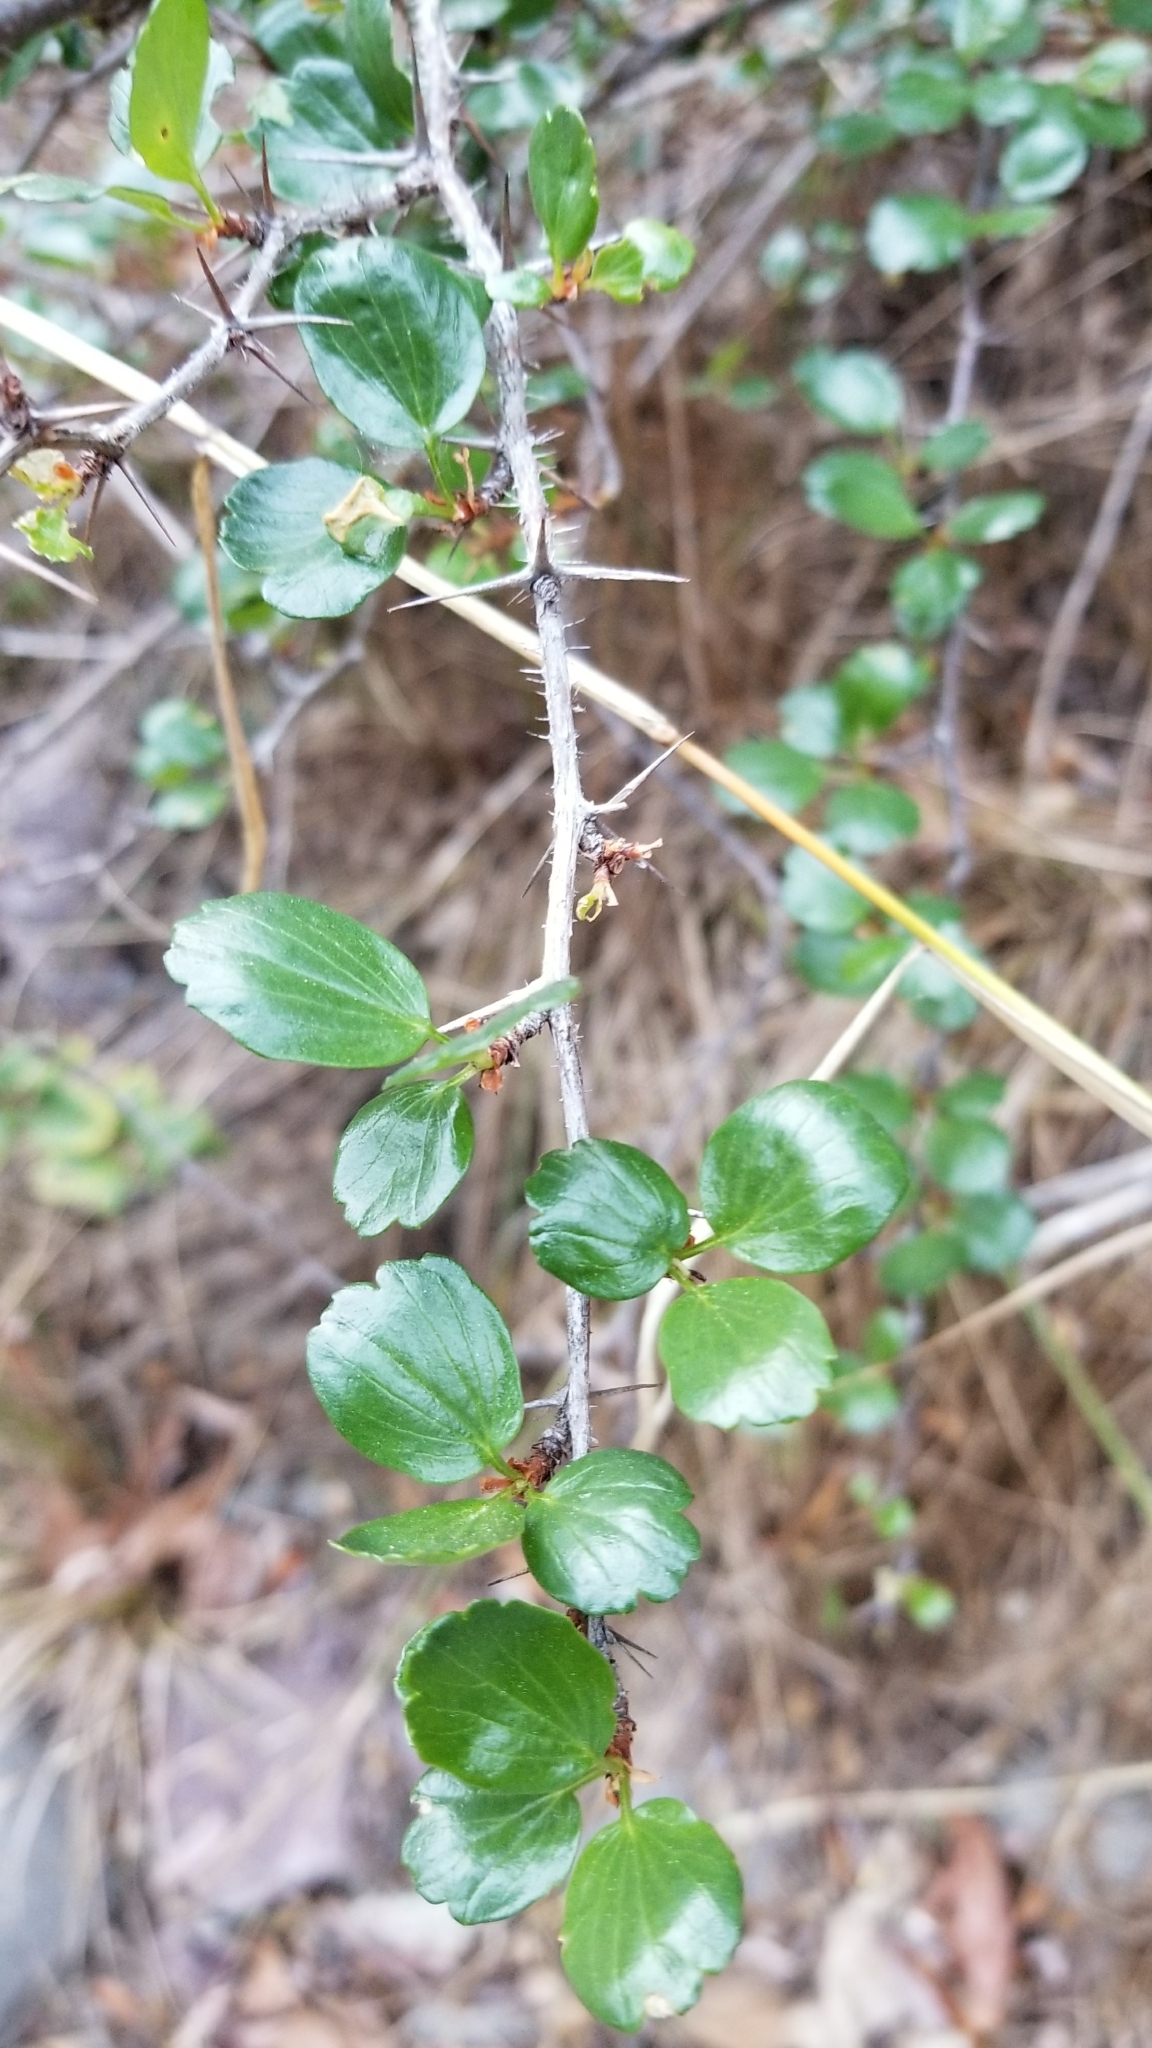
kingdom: Plantae
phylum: Tracheophyta
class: Magnoliopsida
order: Saxifragales
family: Grossulariaceae
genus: Ribes
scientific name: Ribes speciosum
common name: Fuchsia-flower gooseberry
